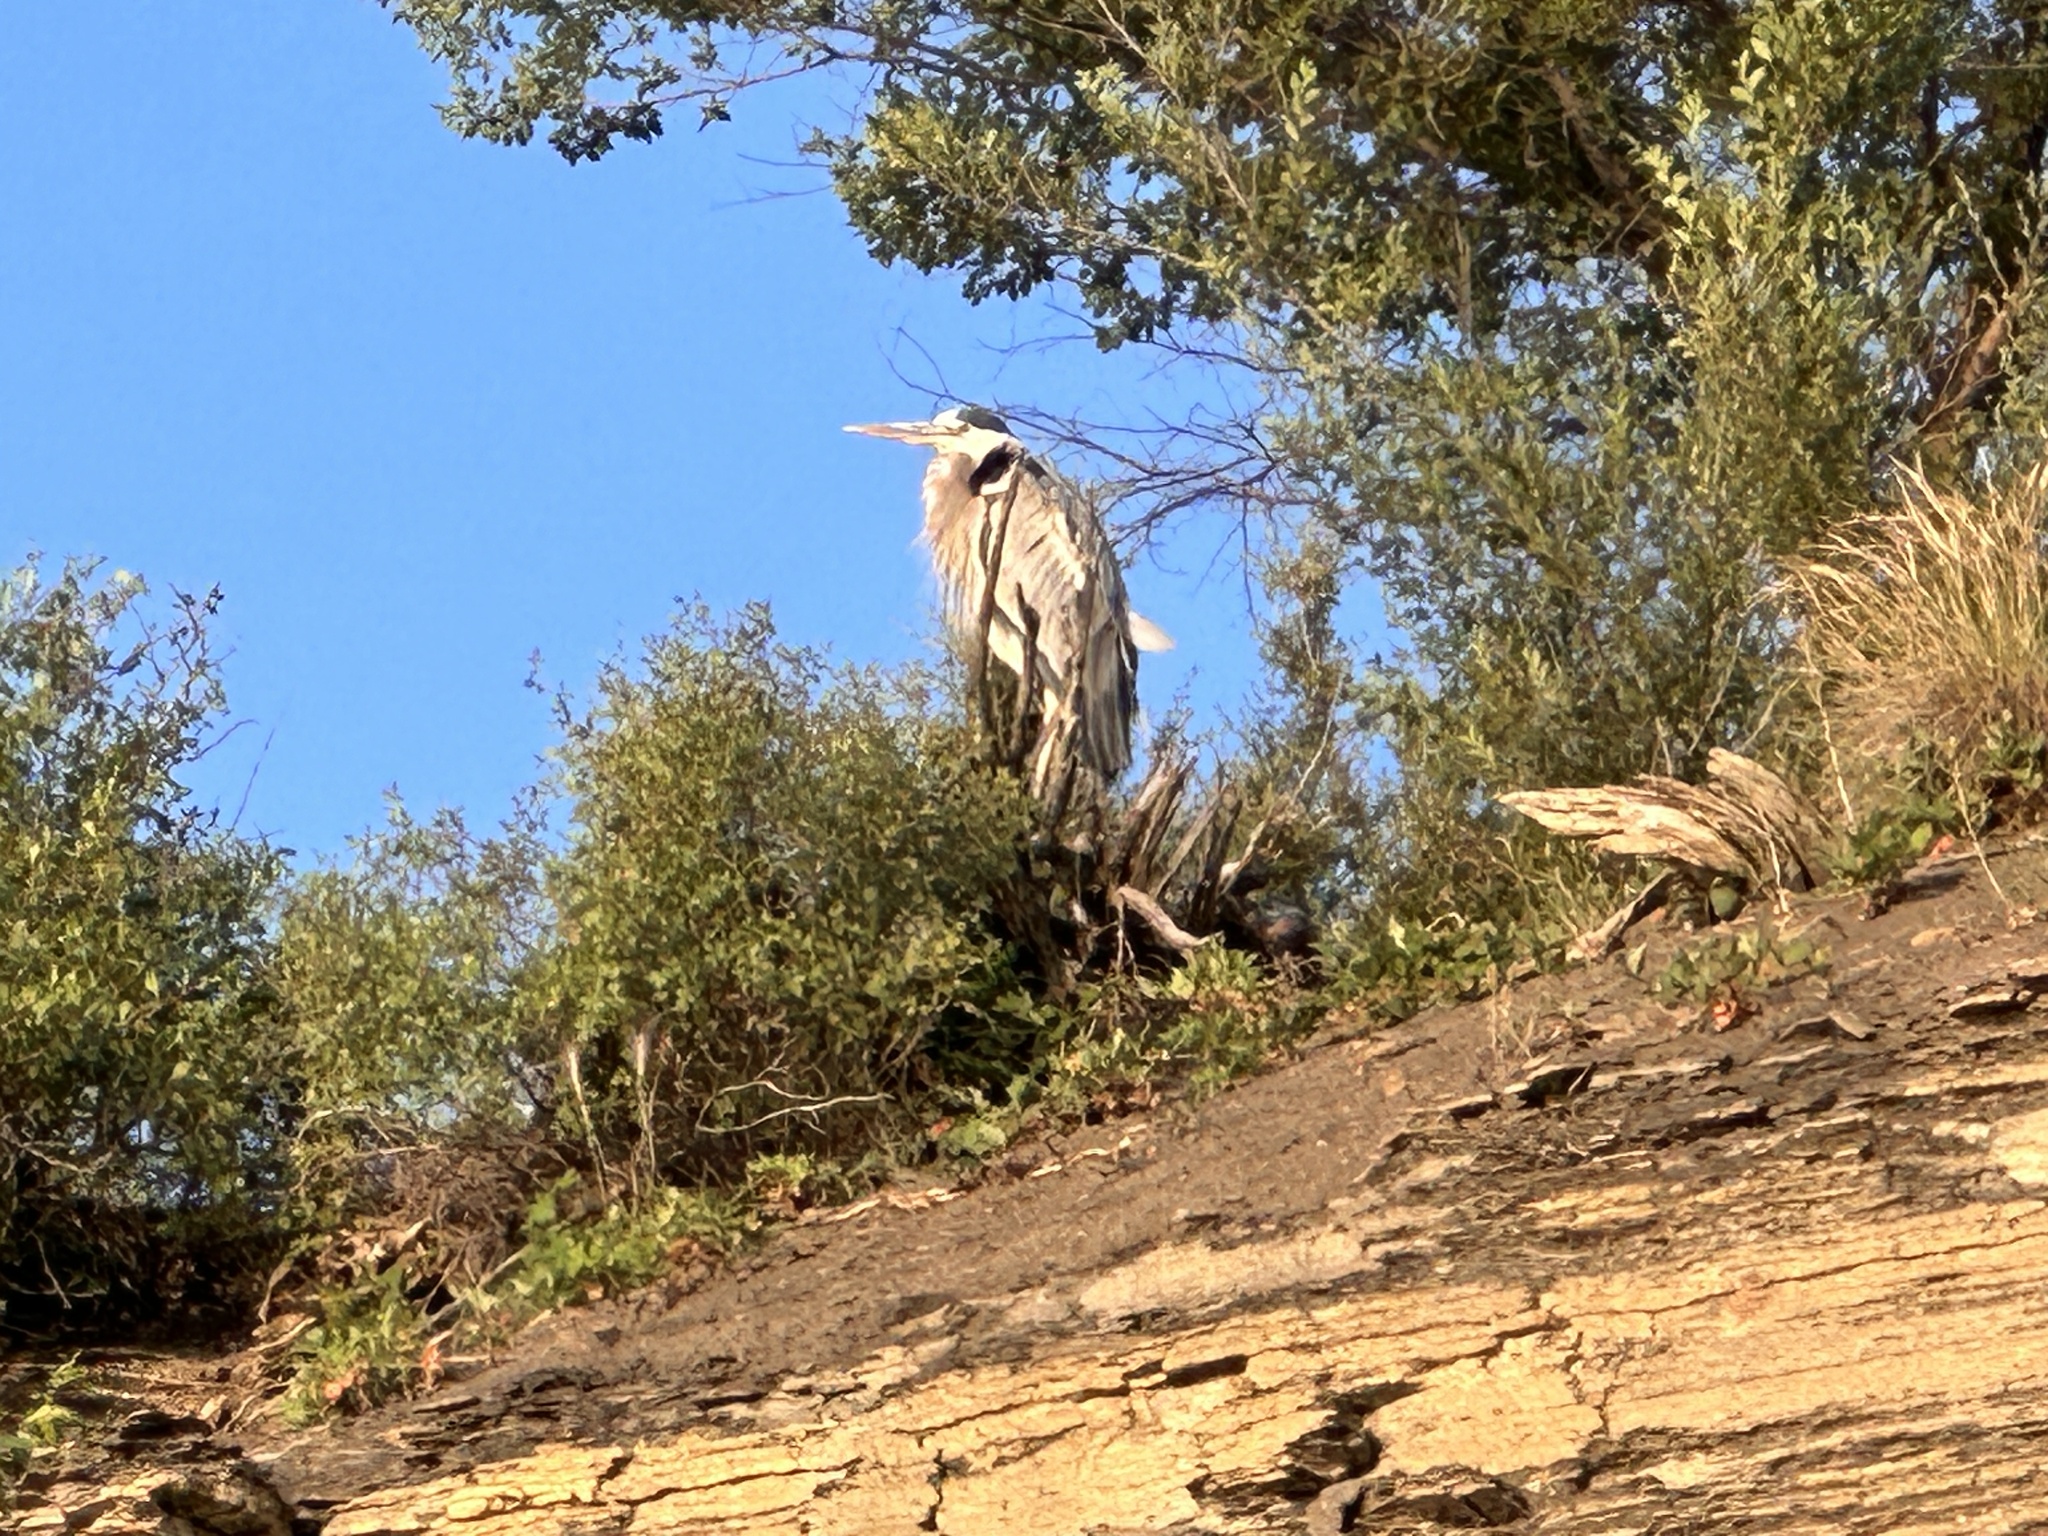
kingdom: Animalia
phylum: Chordata
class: Aves
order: Pelecaniformes
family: Ardeidae
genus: Ardea
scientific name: Ardea herodias
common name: Great blue heron
